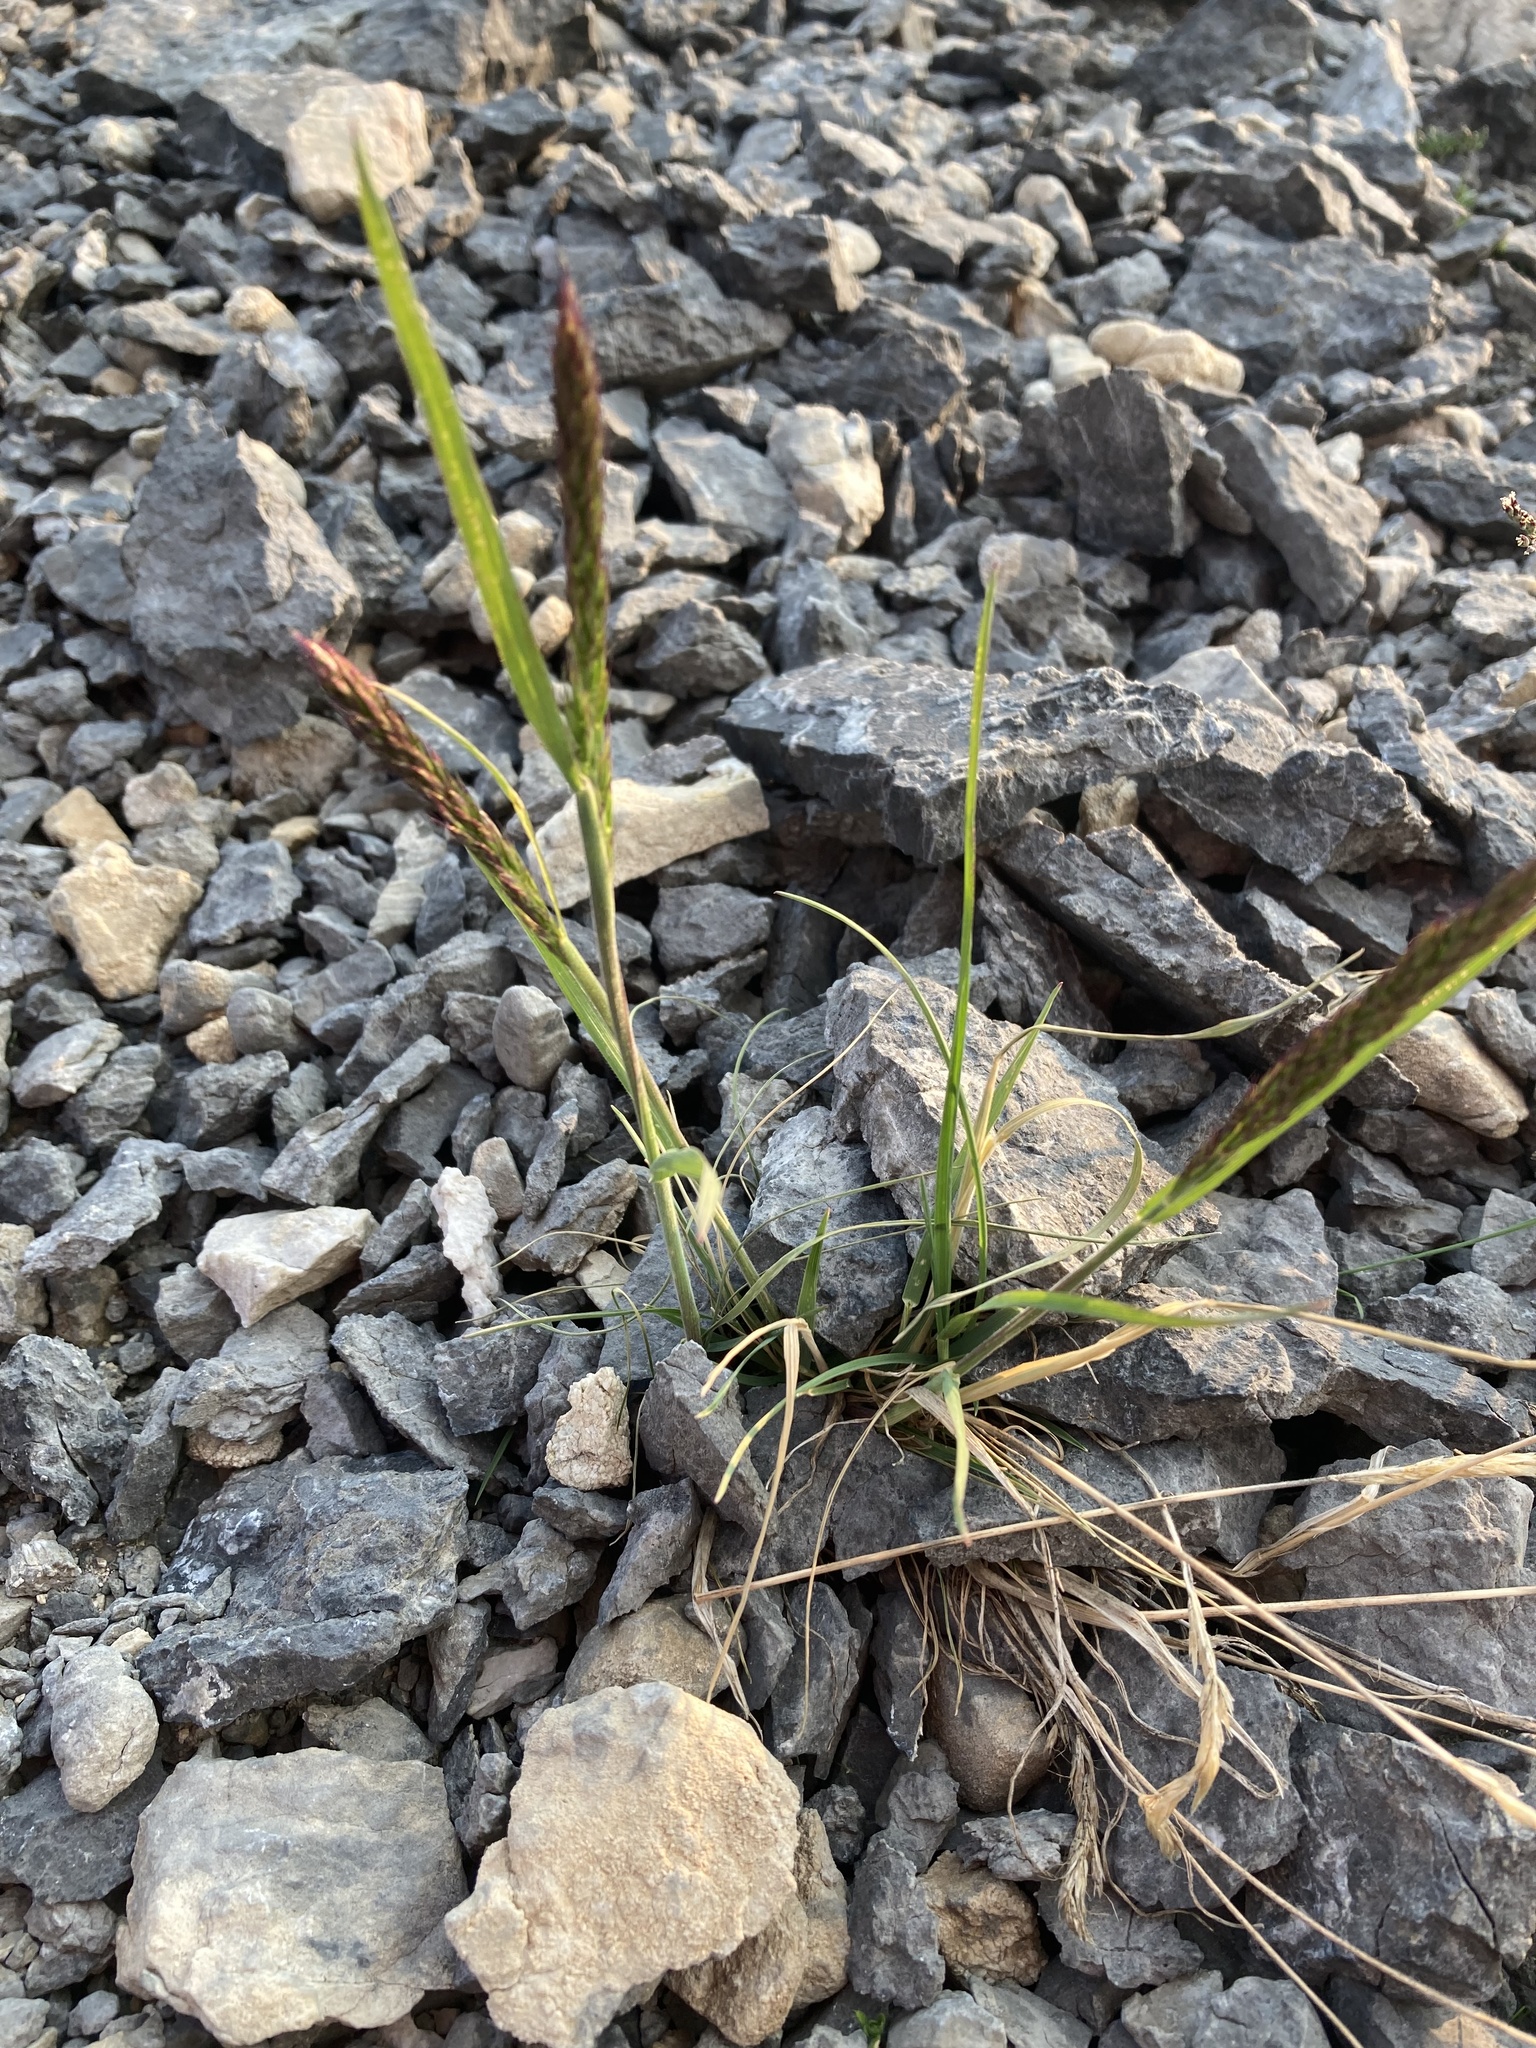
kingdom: Plantae
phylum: Tracheophyta
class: Liliopsida
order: Poales
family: Poaceae
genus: Koeleria
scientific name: Koeleria spicata
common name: Mountain trisetum
